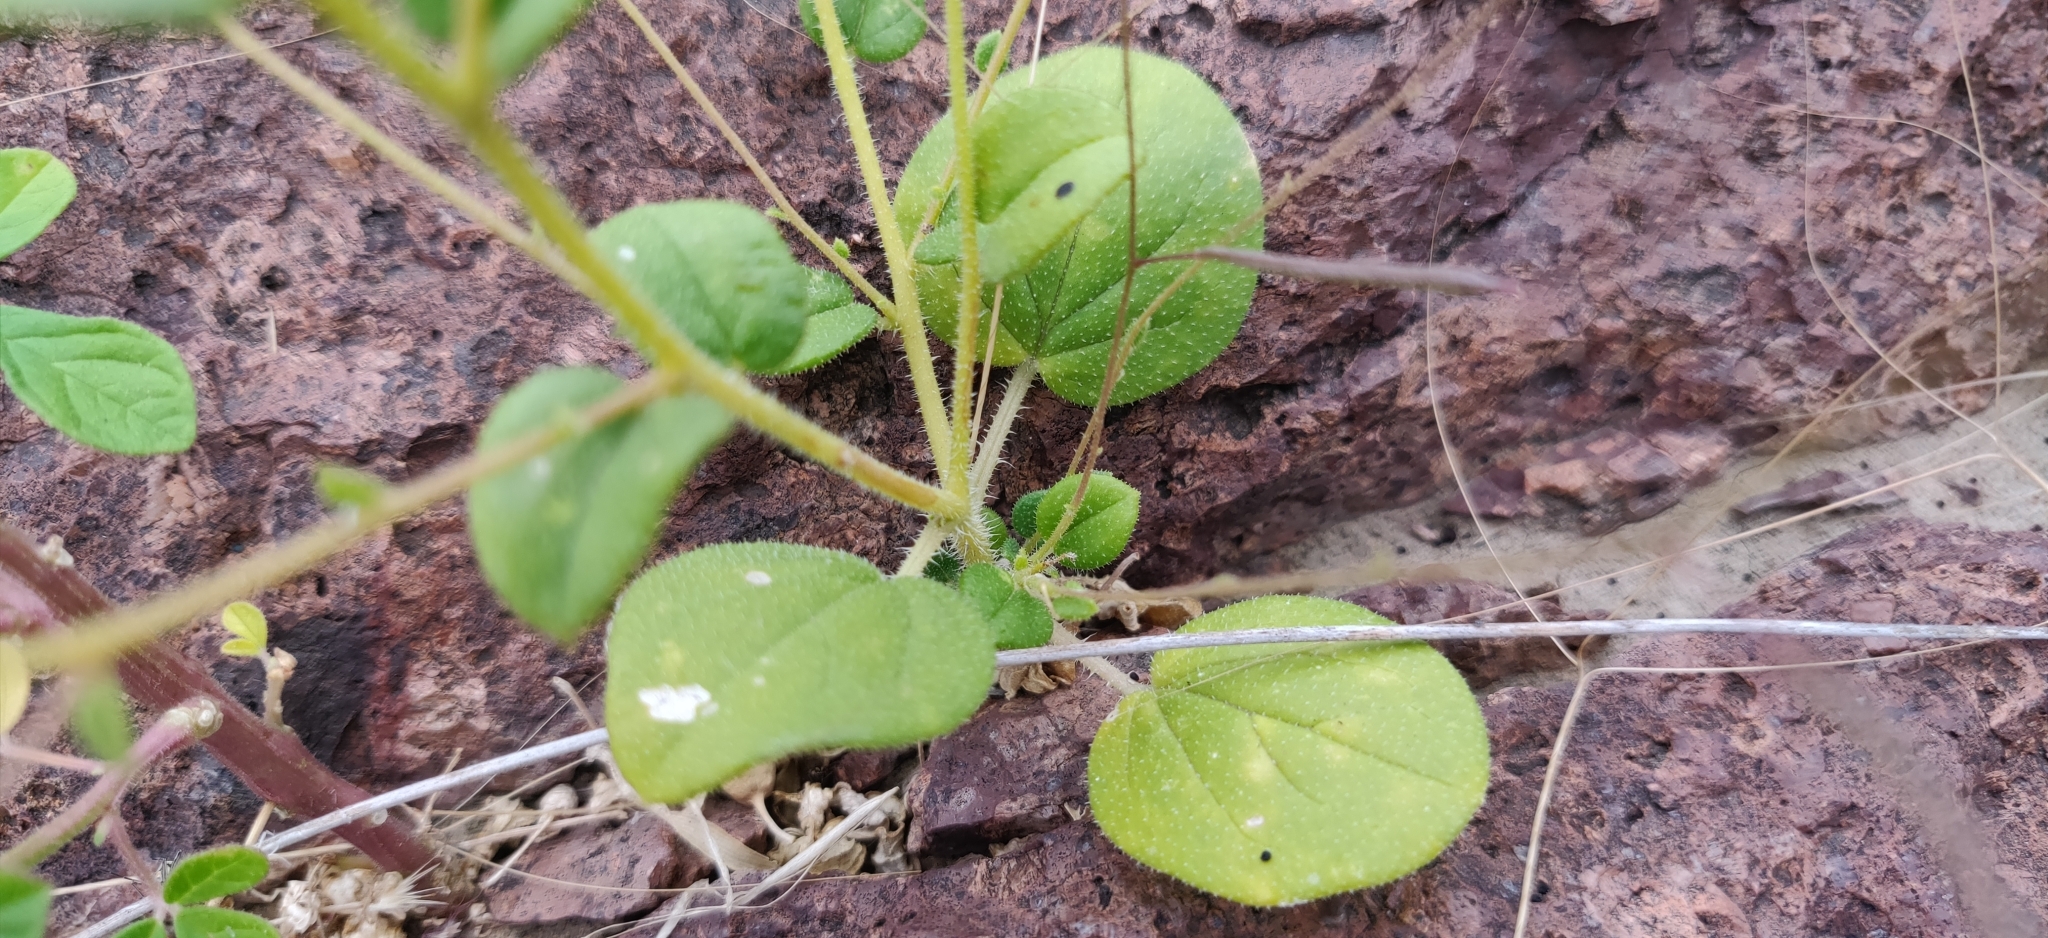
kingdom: Plantae
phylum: Tracheophyta
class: Magnoliopsida
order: Brassicales
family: Cleomaceae
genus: Gilgella
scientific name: Gilgella scaposa
